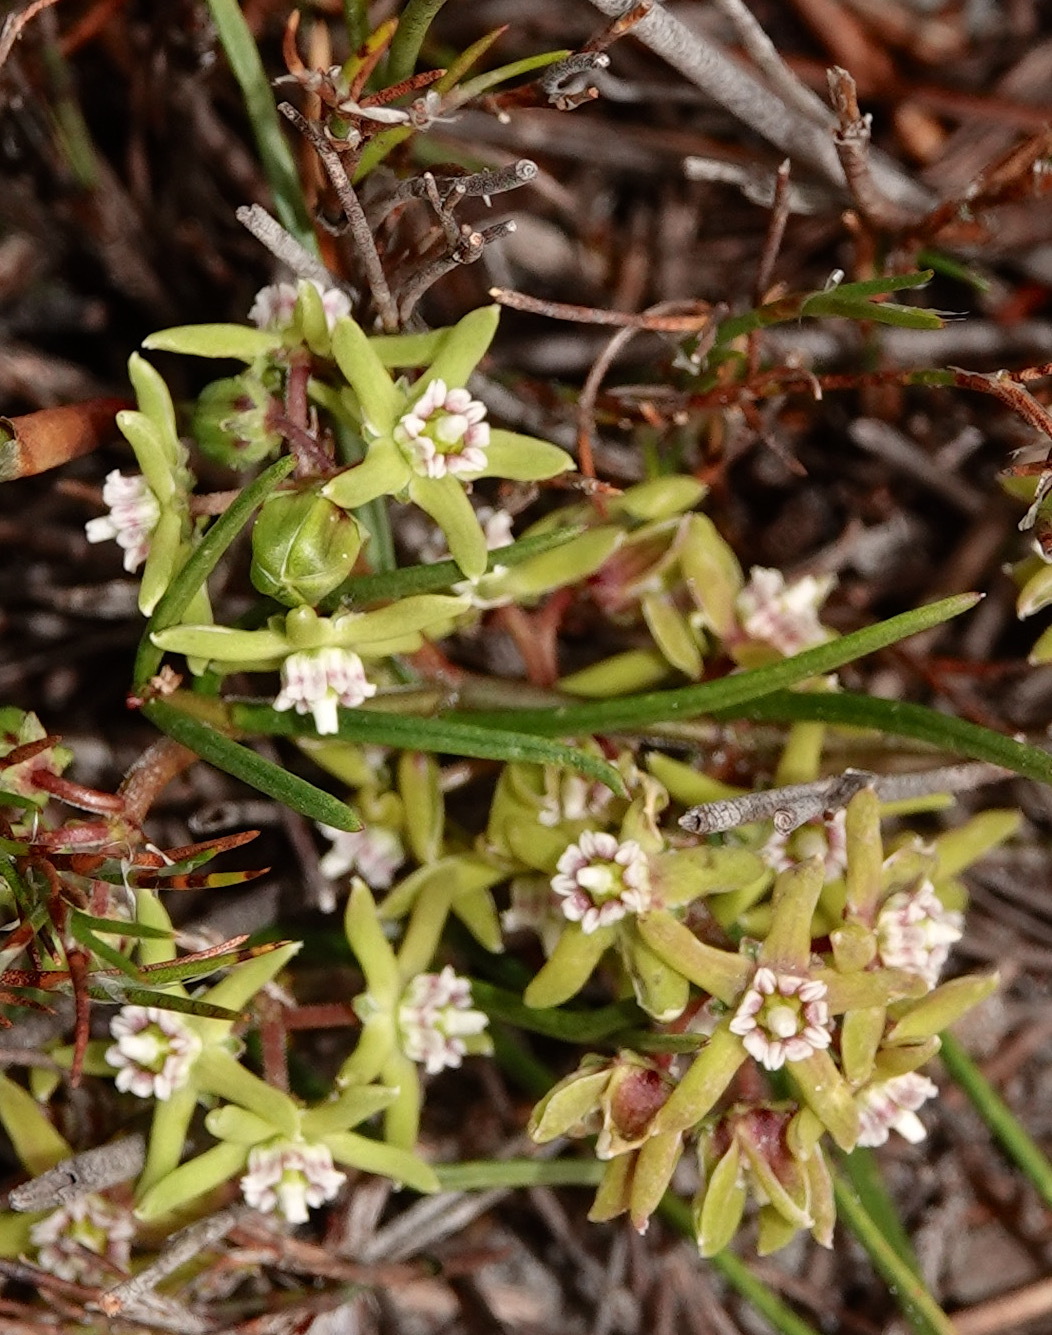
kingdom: Plantae
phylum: Tracheophyta
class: Magnoliopsida
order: Gentianales
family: Apocynaceae
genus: Eustegia
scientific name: Eustegia minuta
